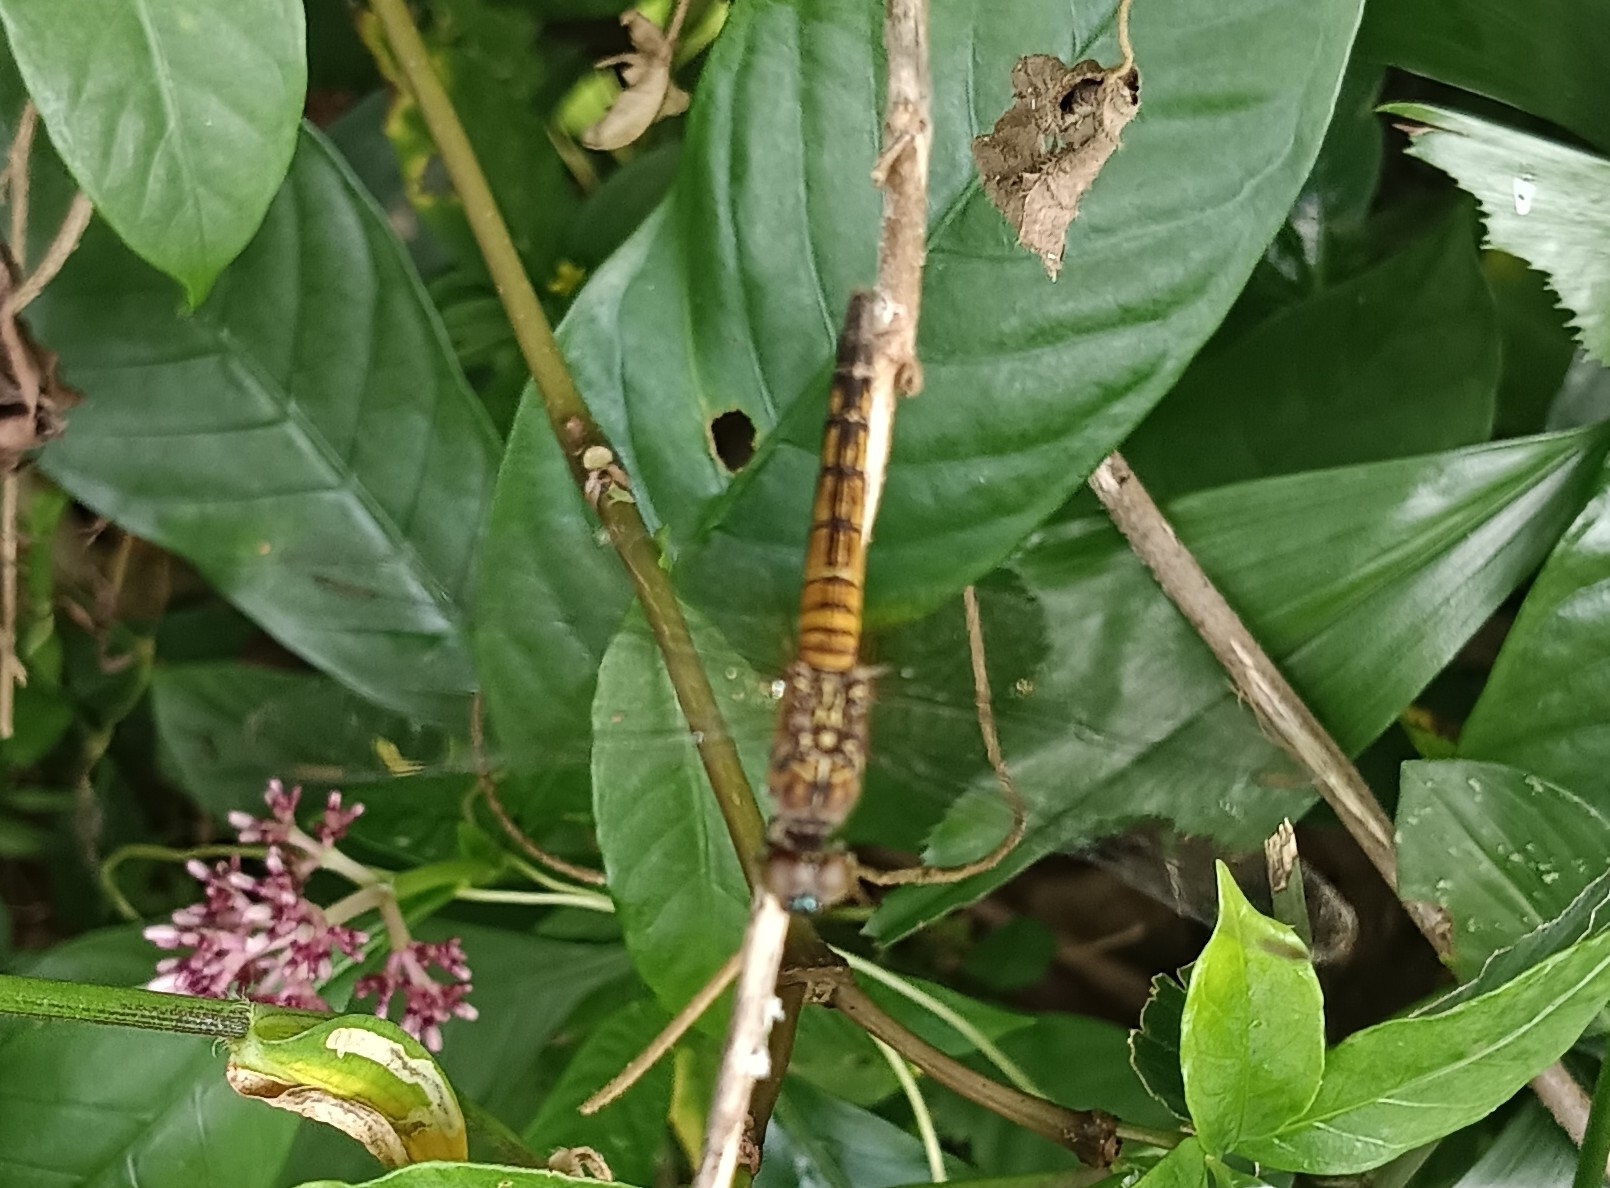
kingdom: Animalia
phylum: Arthropoda
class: Insecta
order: Odonata
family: Libellulidae
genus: Brachydiplax
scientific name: Brachydiplax chalybea
